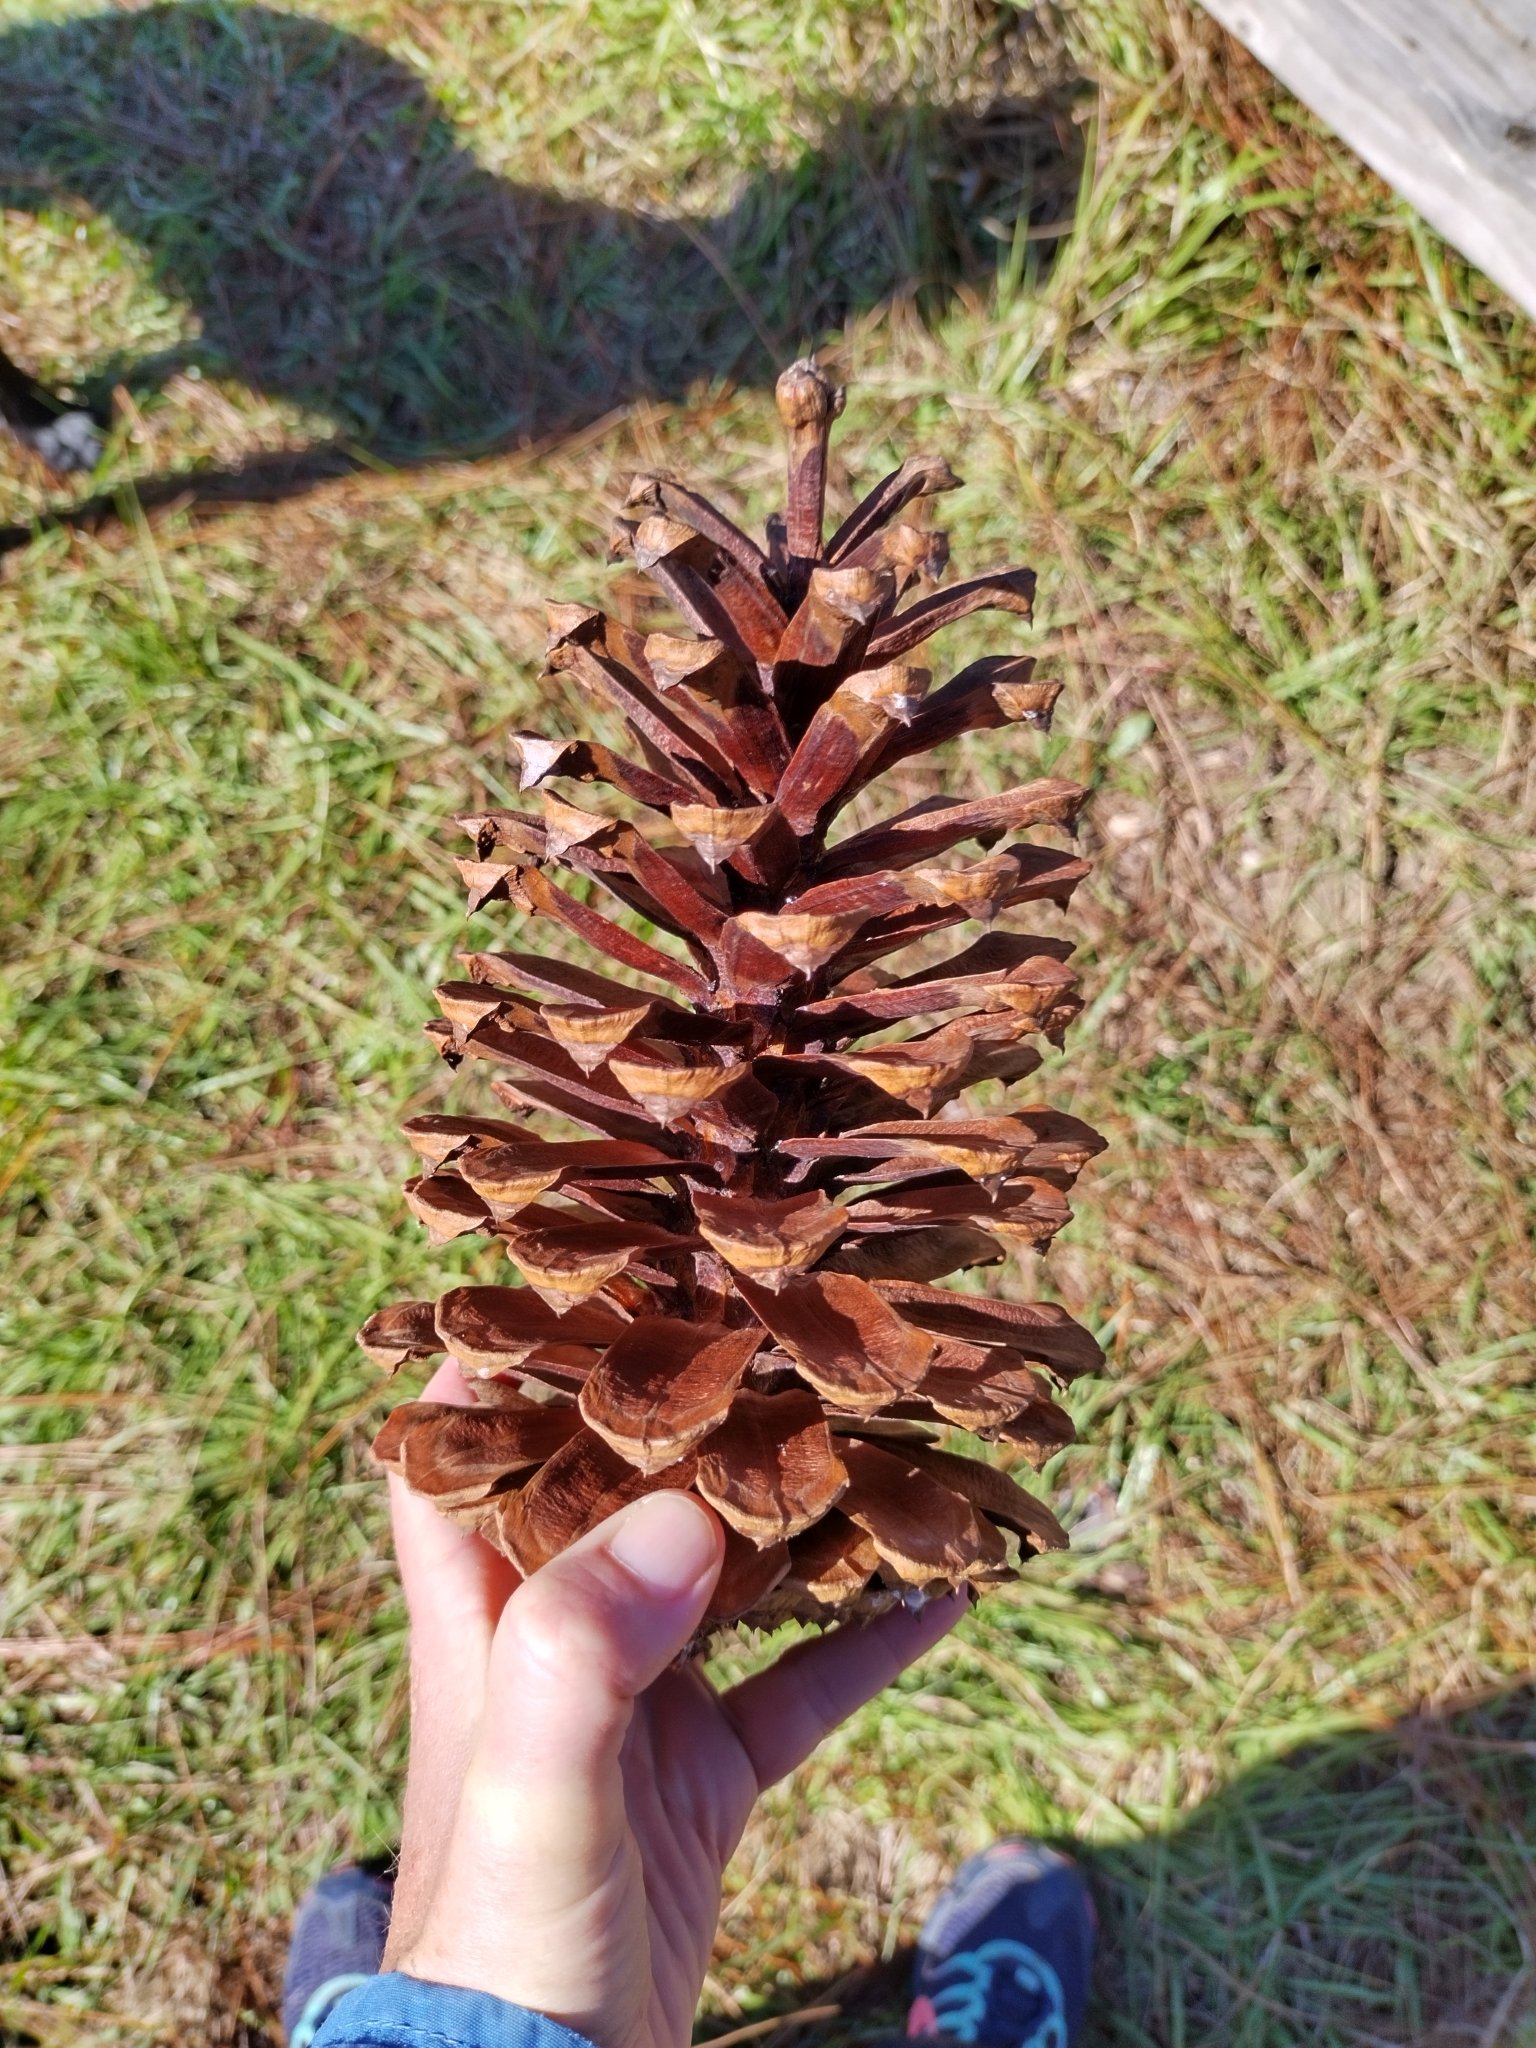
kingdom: Plantae
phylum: Tracheophyta
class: Pinopsida
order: Pinales
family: Pinaceae
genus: Pinus
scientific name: Pinus palustris
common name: Longleaf pine
